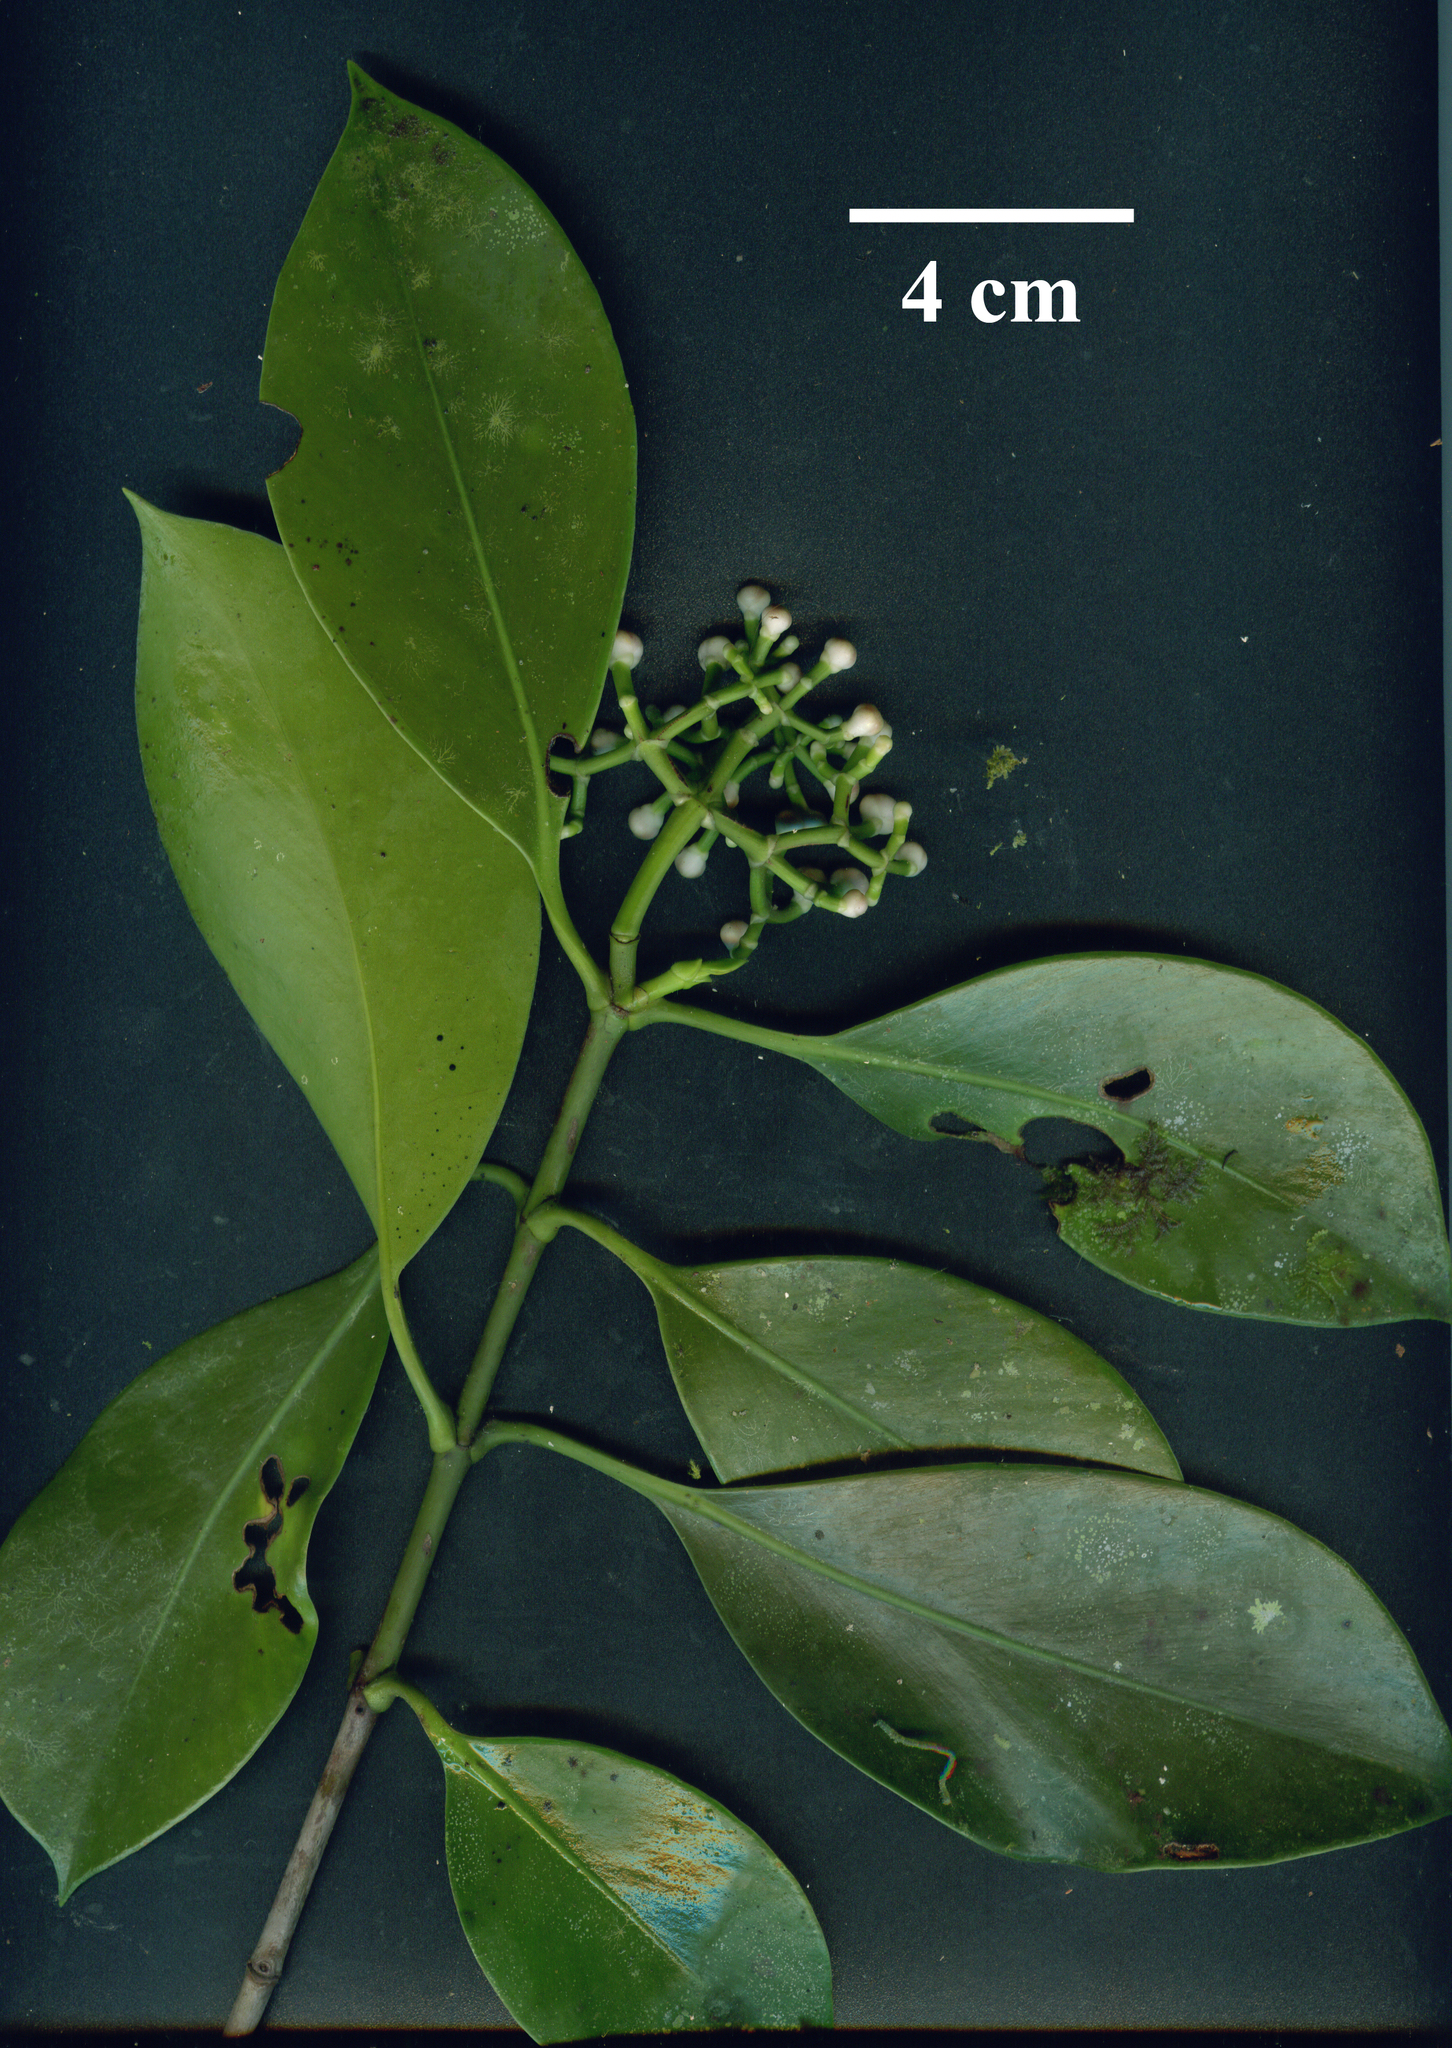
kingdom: Plantae
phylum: Tracheophyta
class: Magnoliopsida
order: Malpighiales
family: Clusiaceae
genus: Clusia
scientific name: Clusia peninsulae
